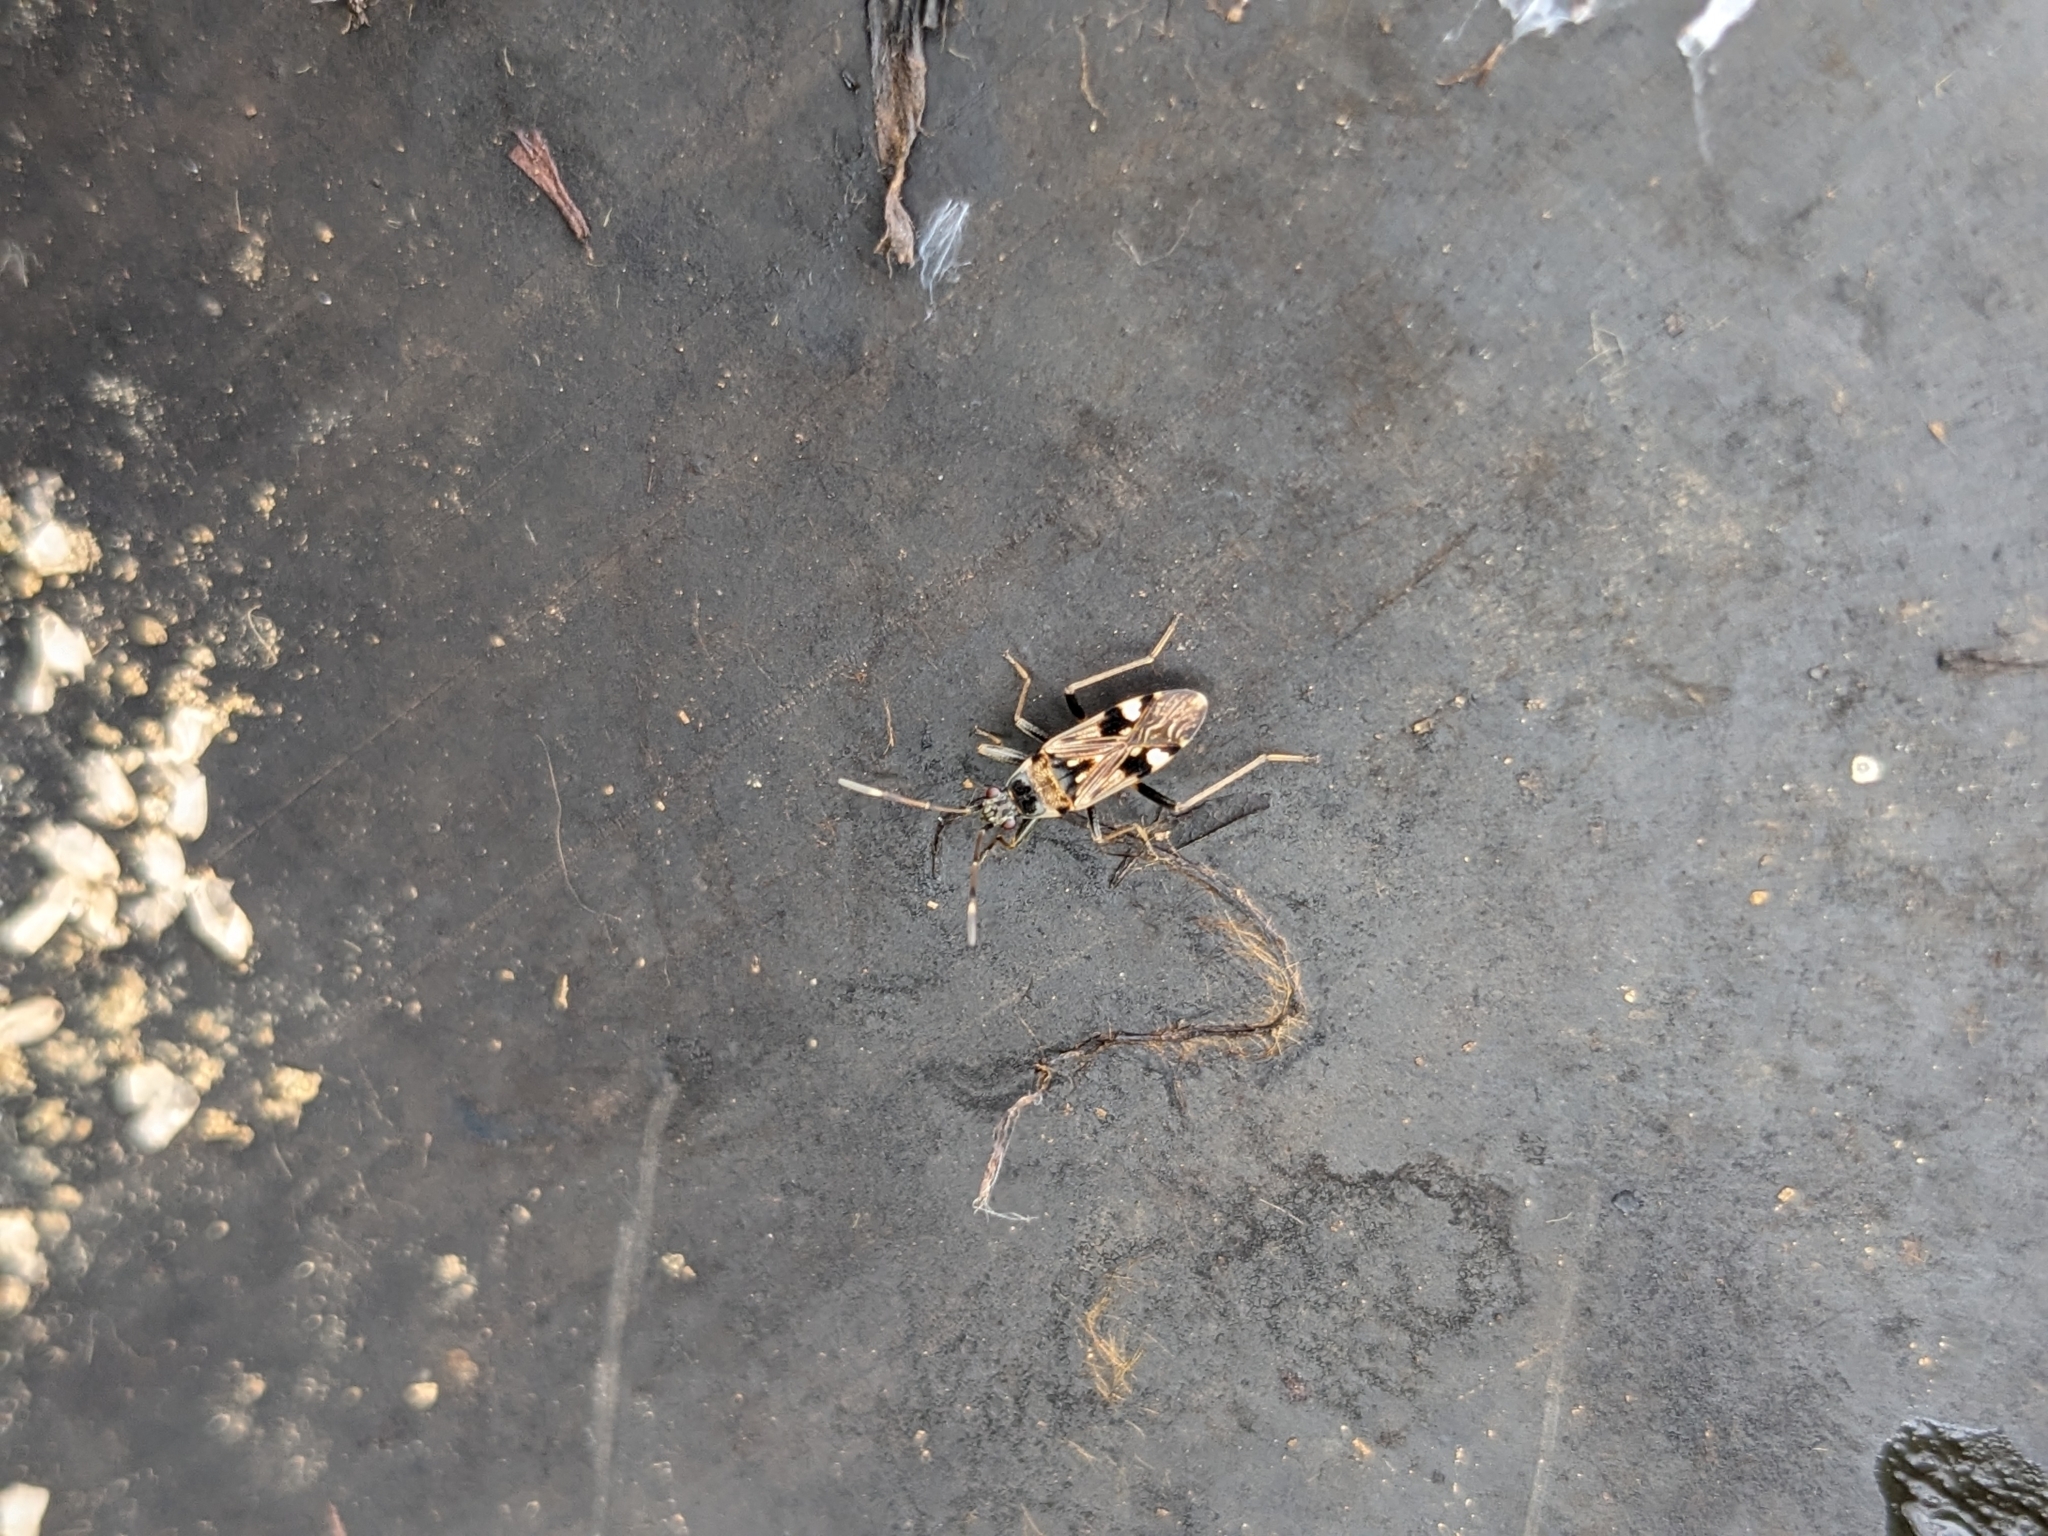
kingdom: Animalia
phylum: Arthropoda
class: Insecta
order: Hemiptera
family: Rhyparochromidae
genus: Beosus
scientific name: Beosus maritimus
